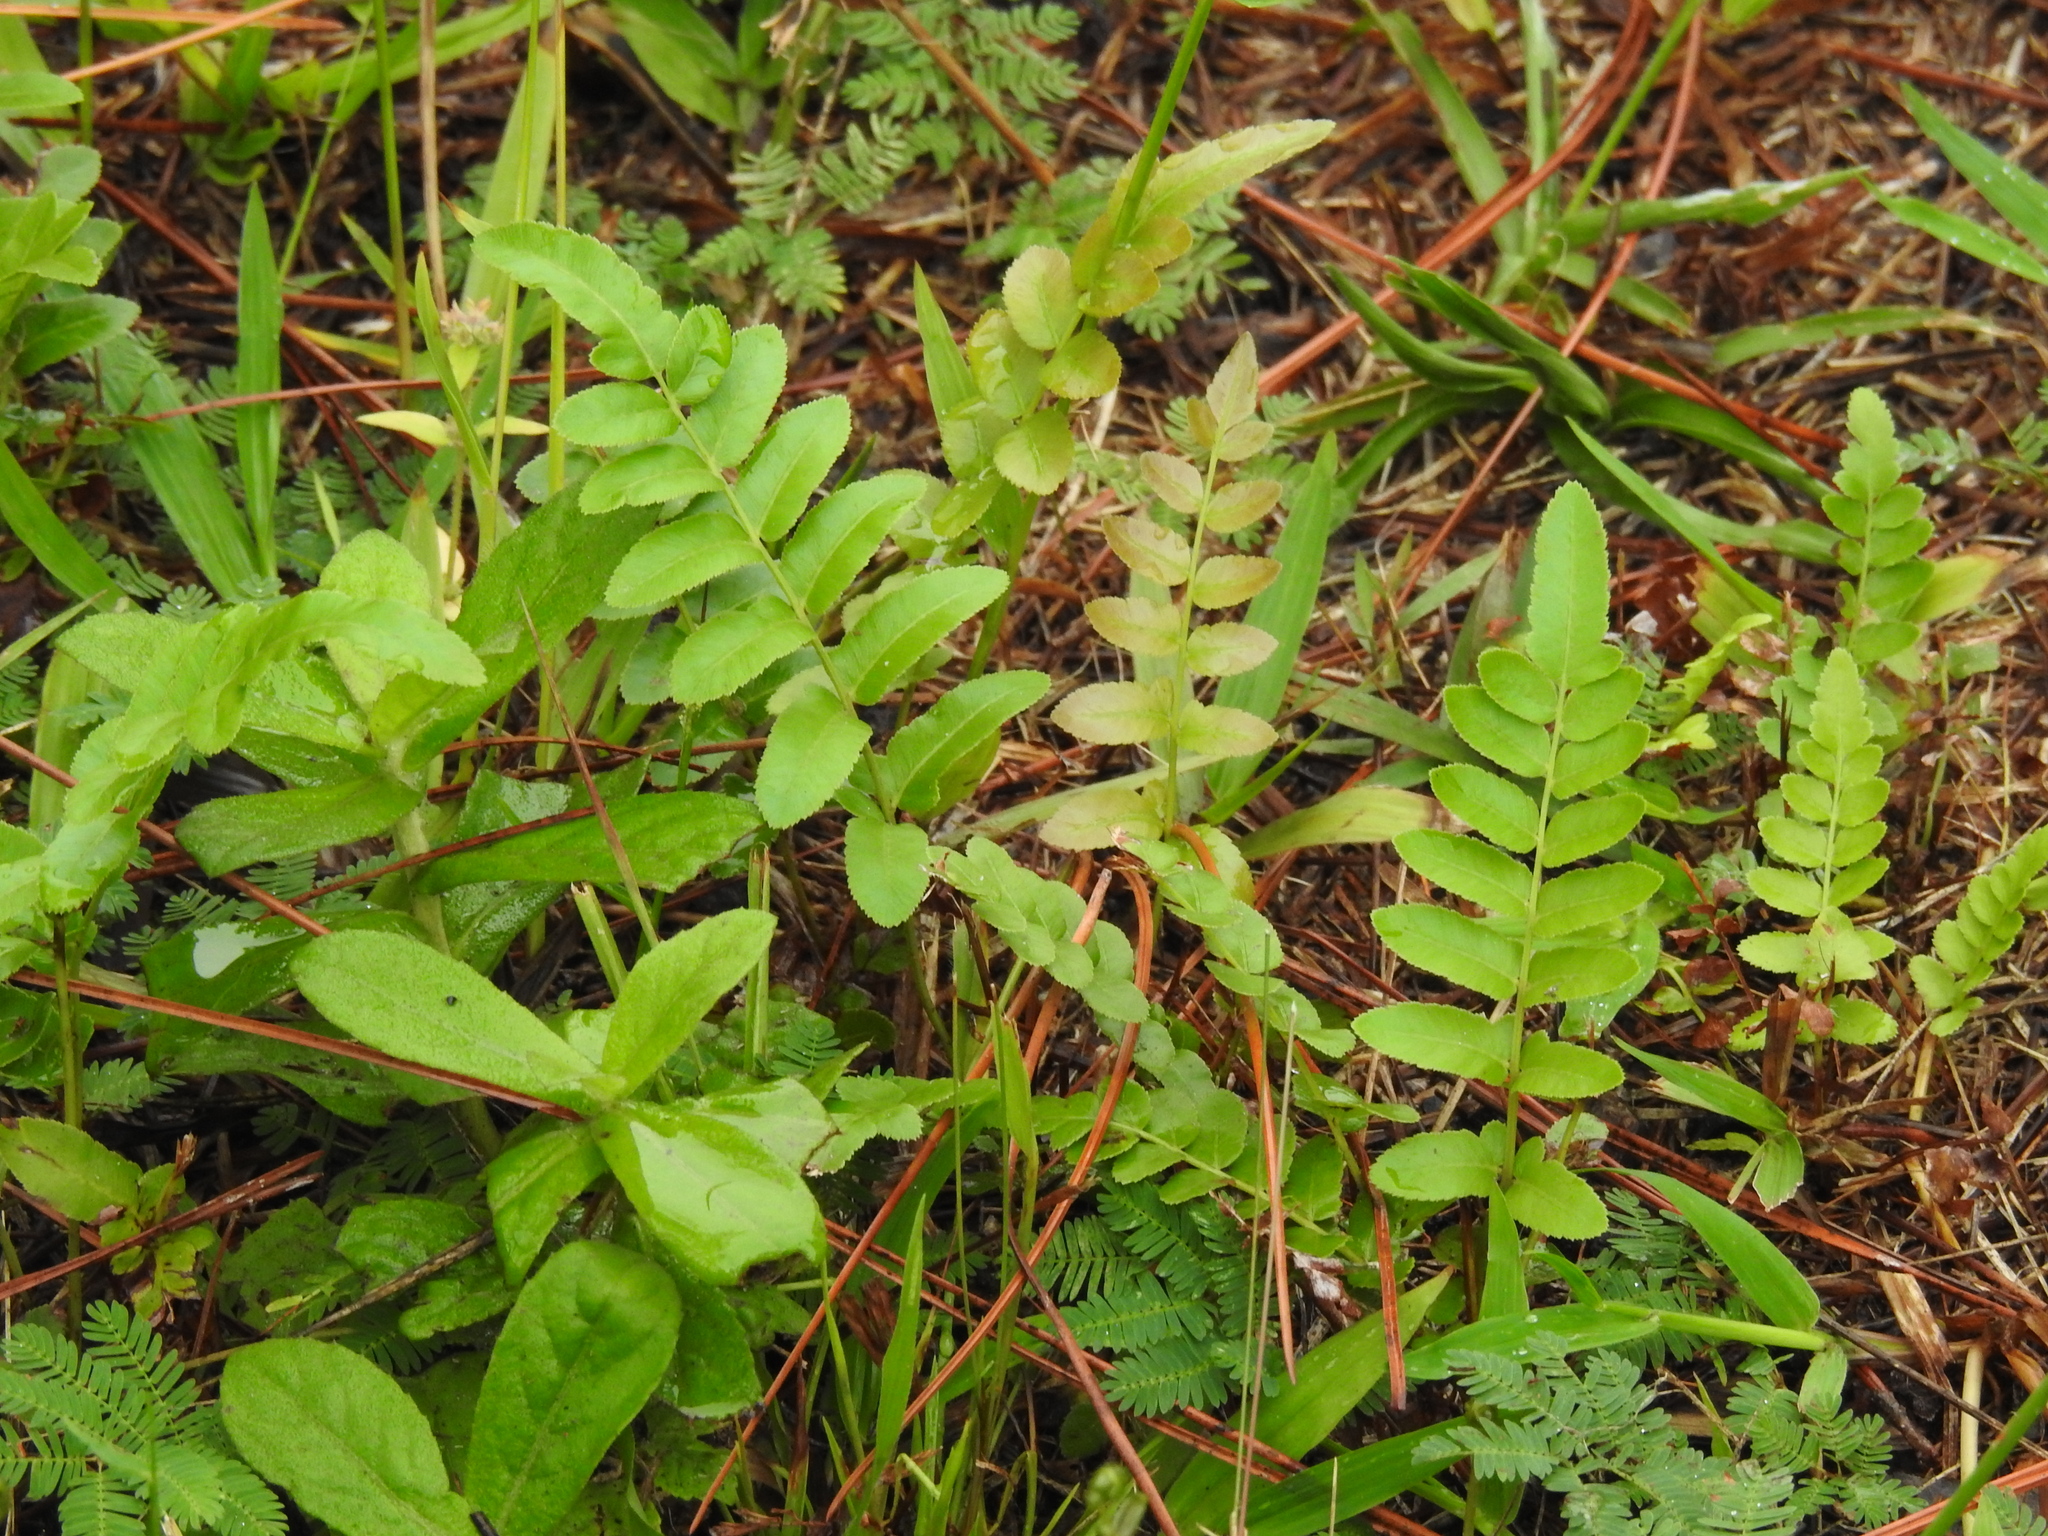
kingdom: Plantae
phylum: Tracheophyta
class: Polypodiopsida
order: Polypodiales
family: Blechnaceae
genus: Telmatoblechnum
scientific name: Telmatoblechnum serrulatum
